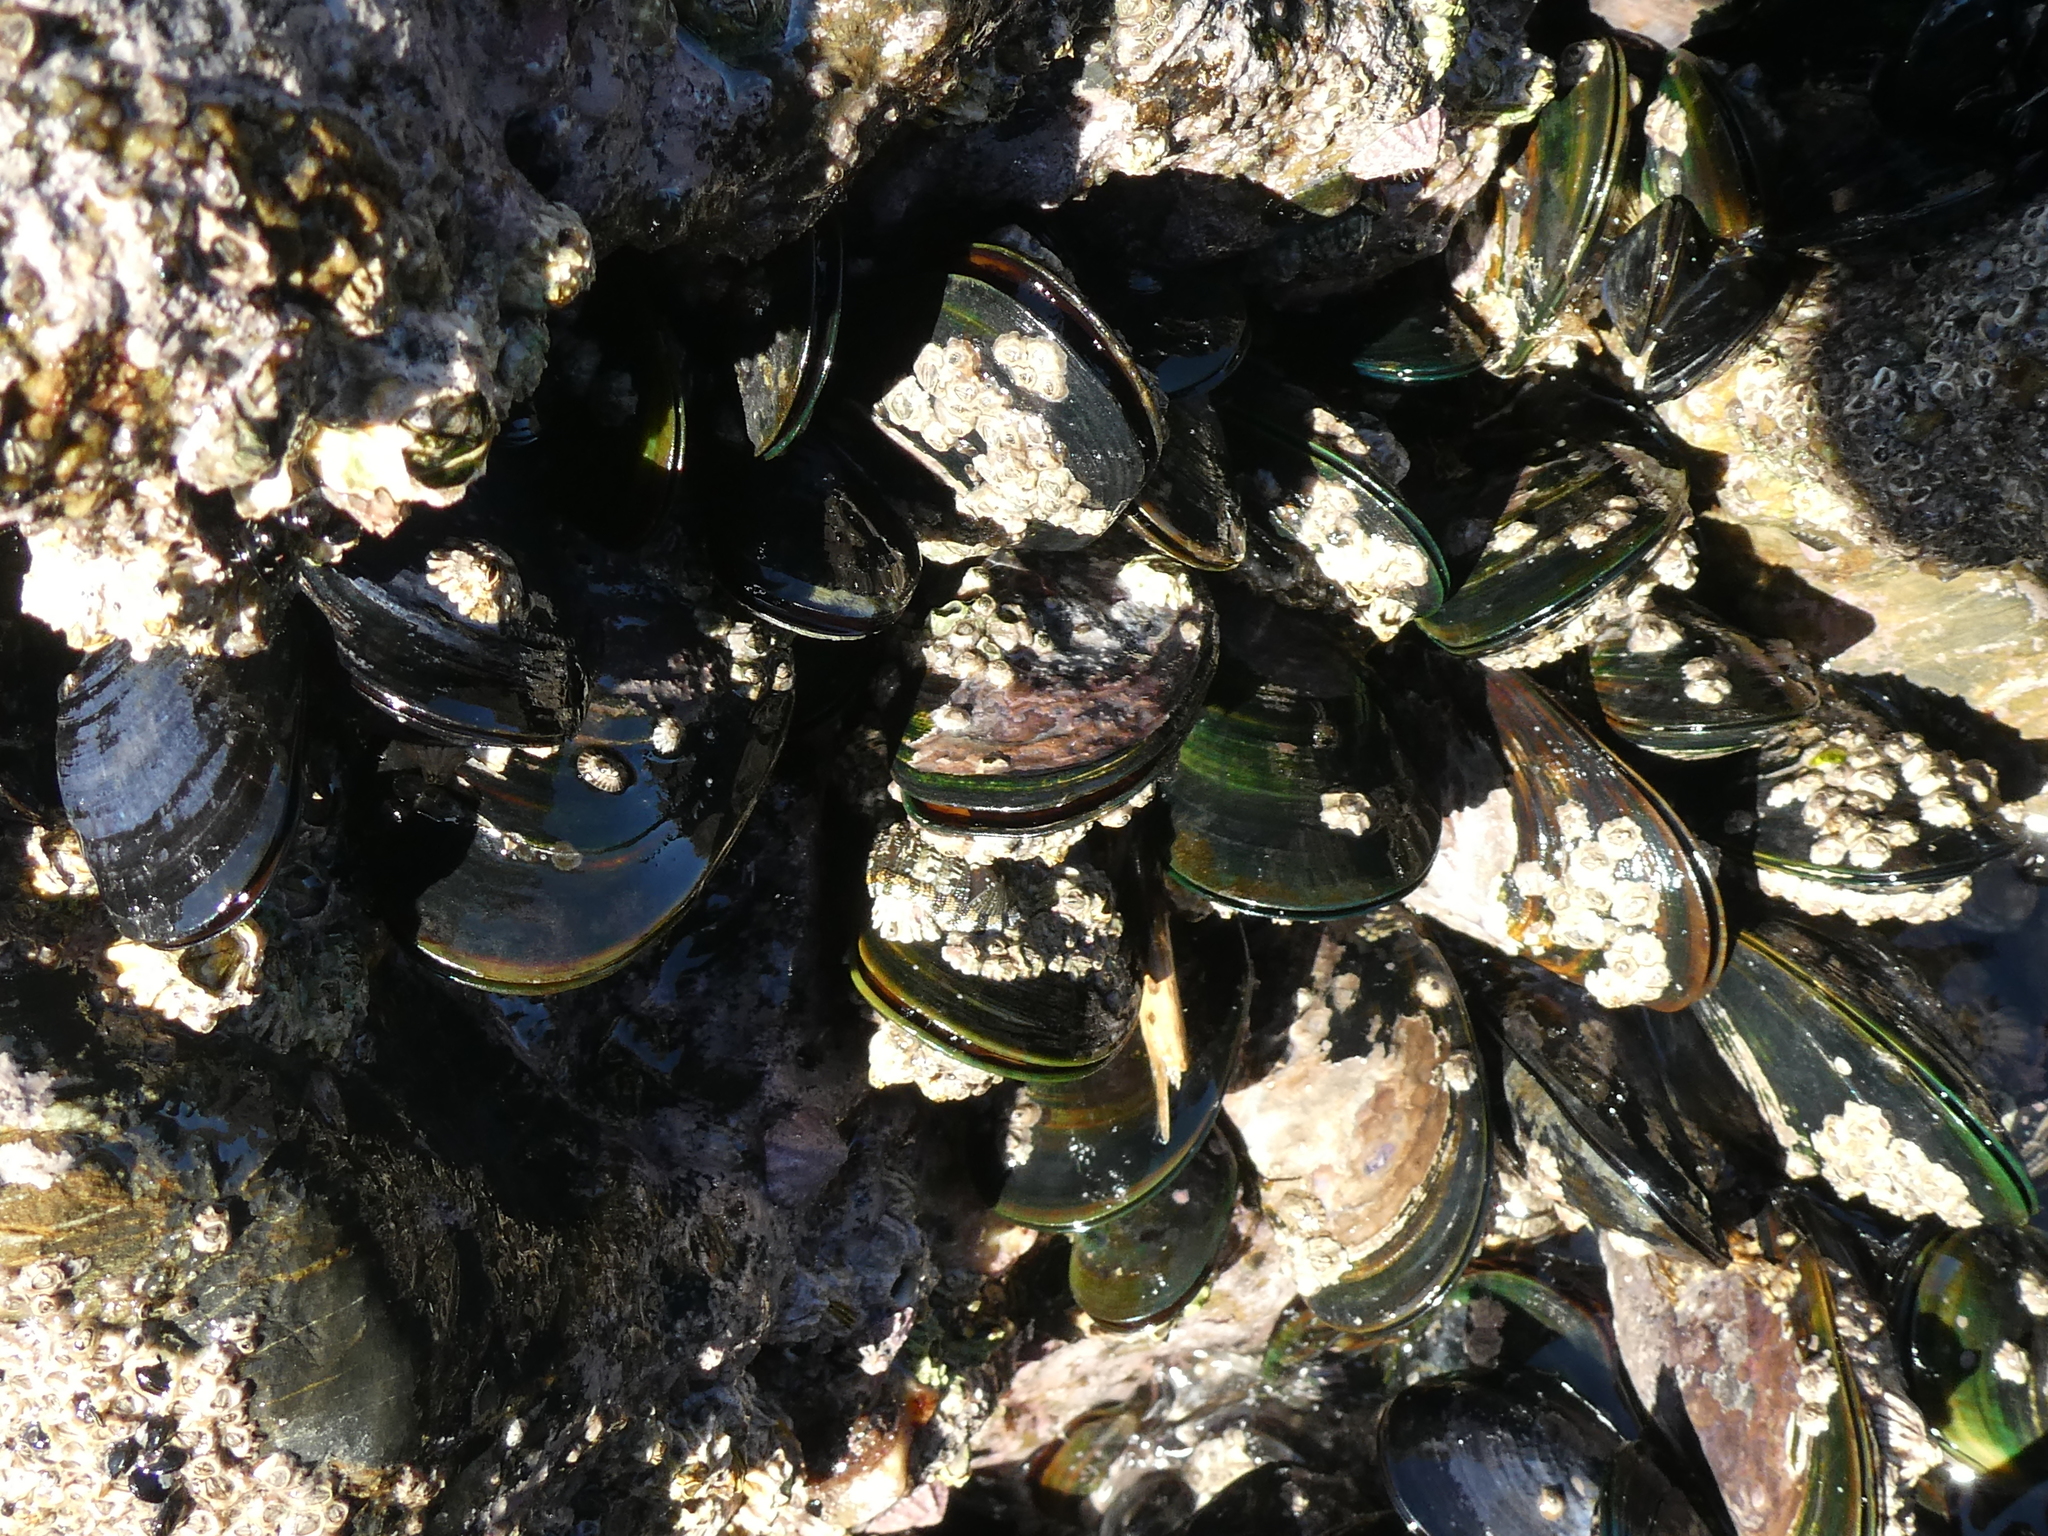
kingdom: Animalia
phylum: Mollusca
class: Bivalvia
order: Mytilida
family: Mytilidae
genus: Perna
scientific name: Perna canaliculus
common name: New zealand greenshelltm
